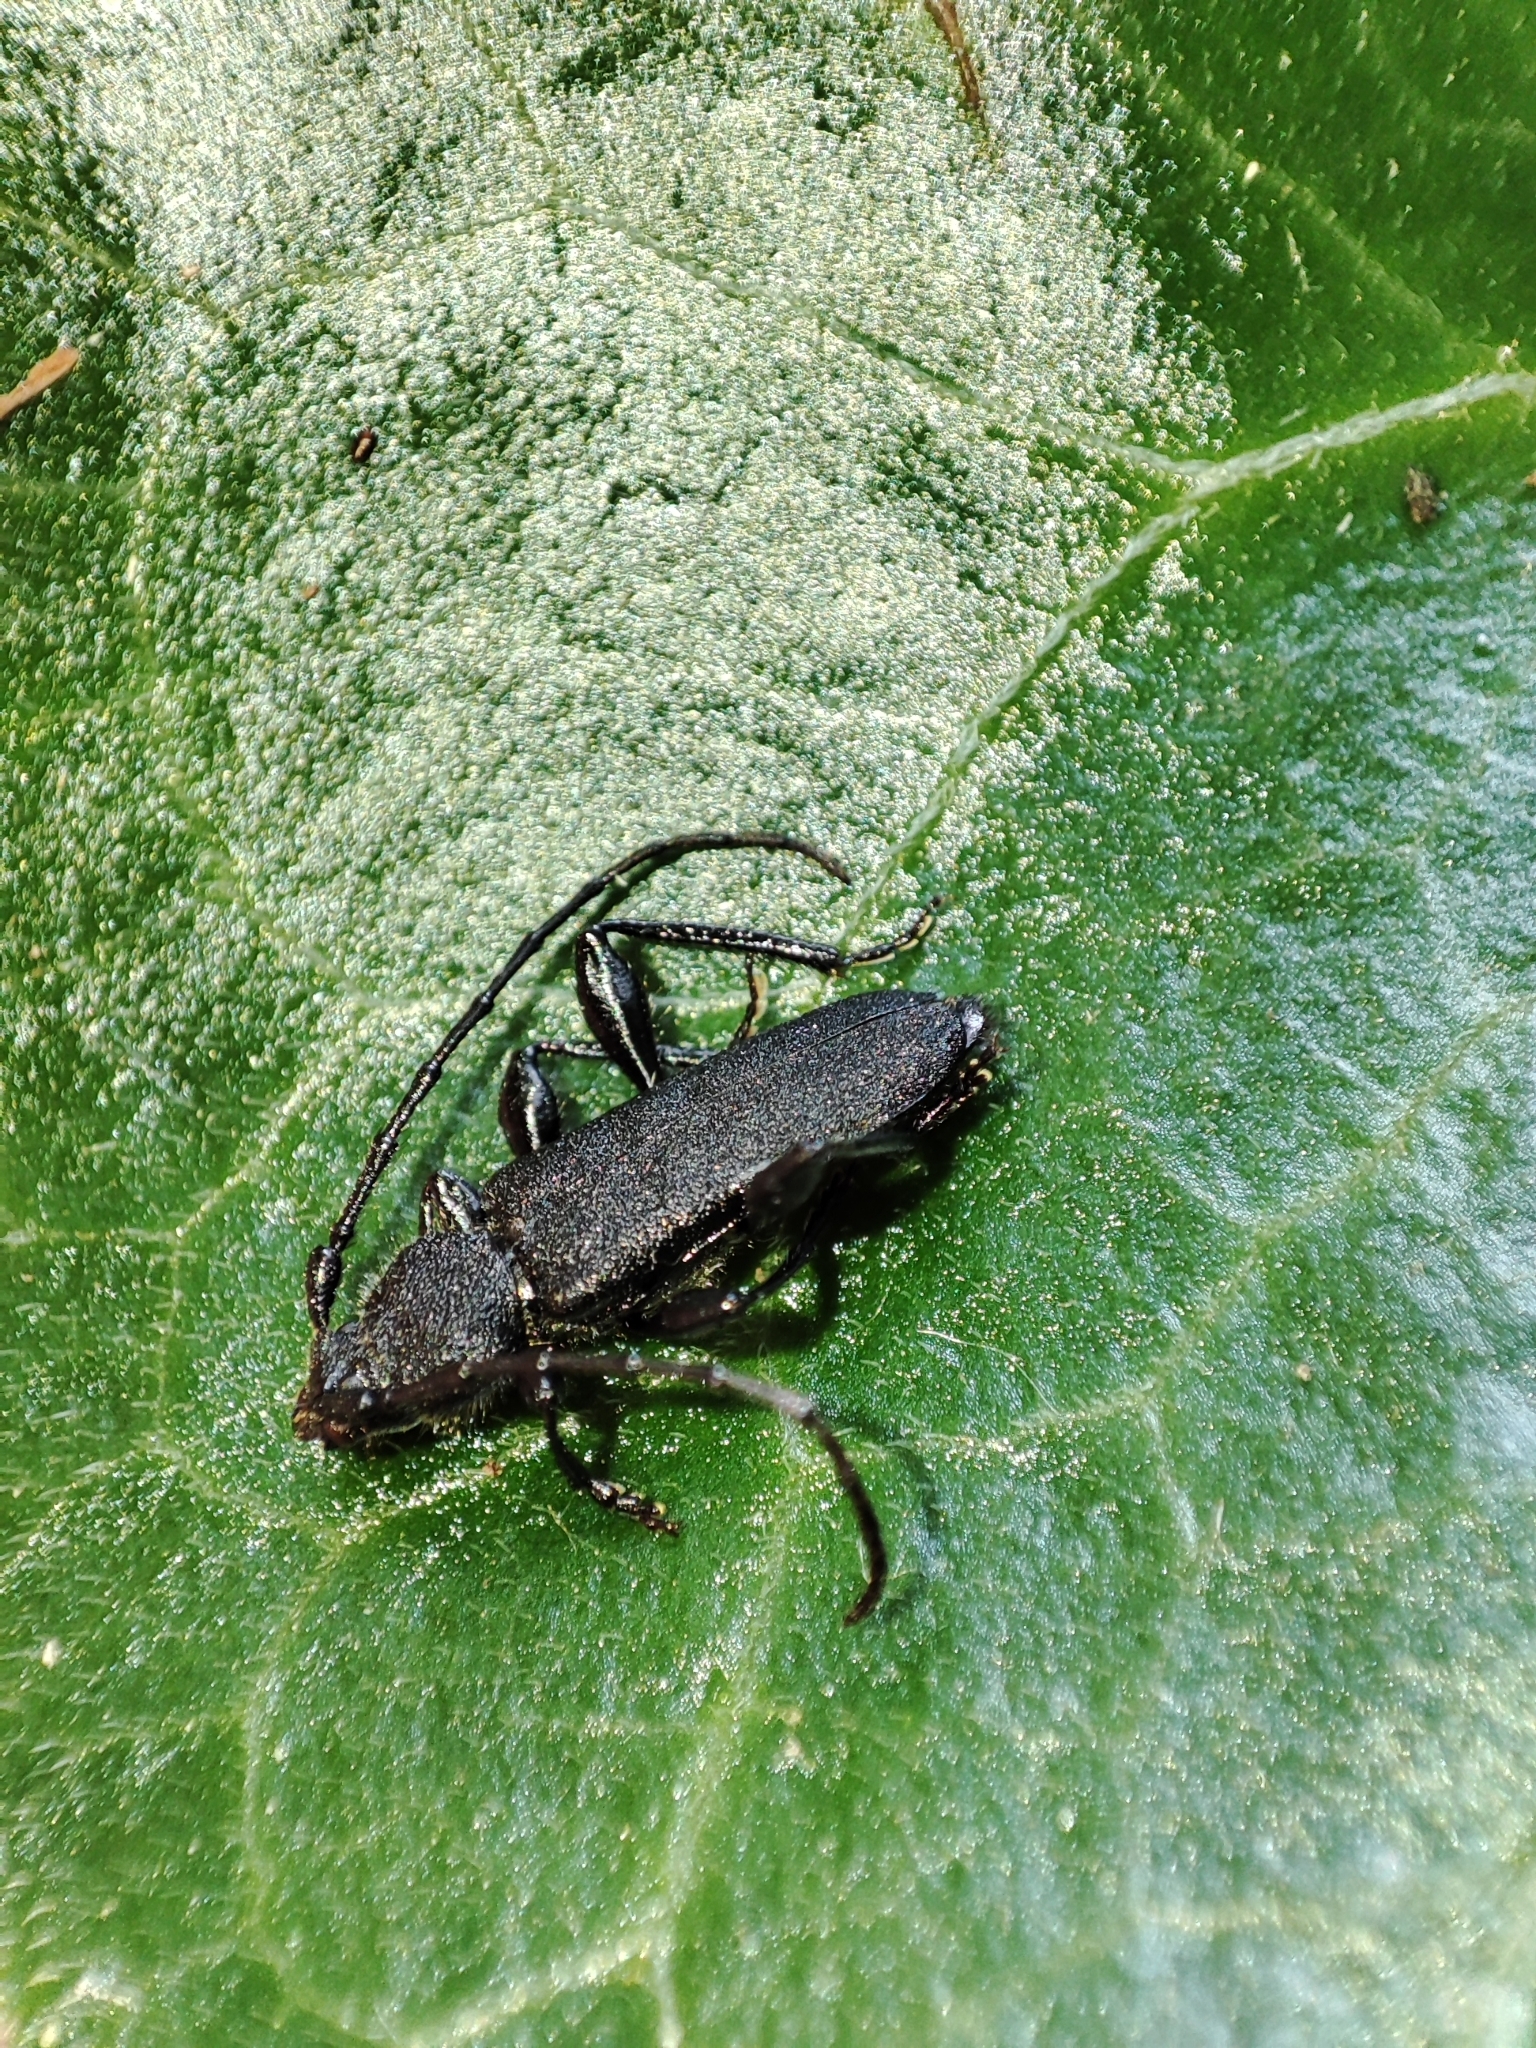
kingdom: Animalia
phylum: Arthropoda
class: Insecta
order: Coleoptera
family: Cerambycidae
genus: Ropalopus
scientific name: Ropalopus macropus
